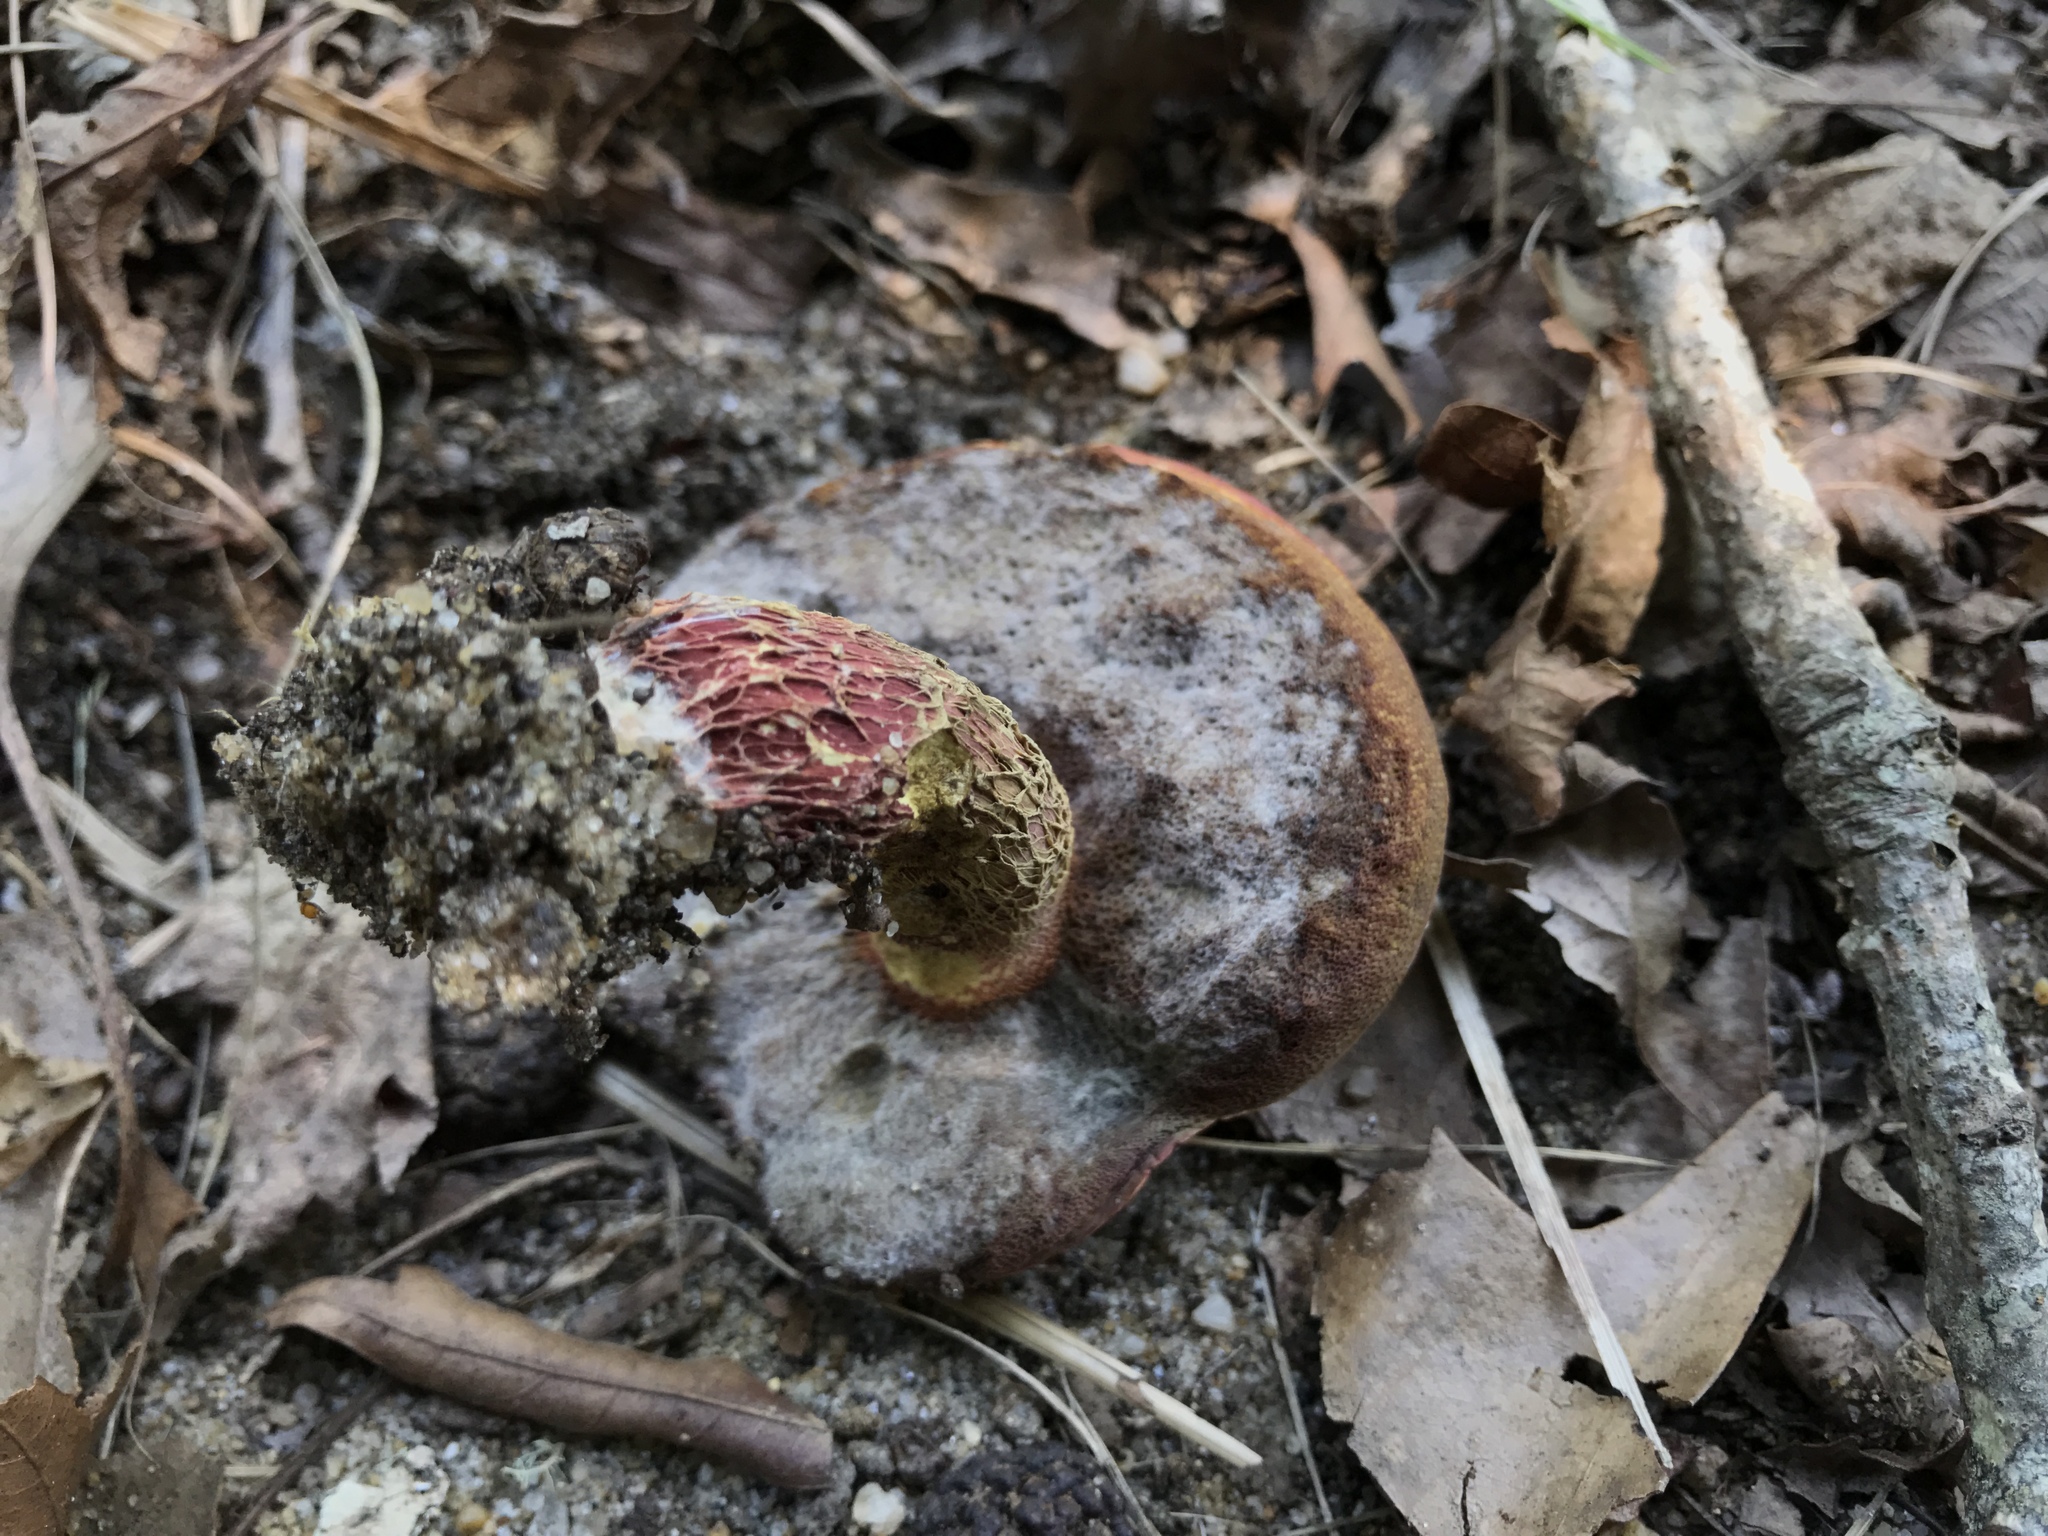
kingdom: Fungi
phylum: Basidiomycota
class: Agaricomycetes
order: Boletales
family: Boletaceae
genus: Butyriboletus
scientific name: Butyriboletus frostii
